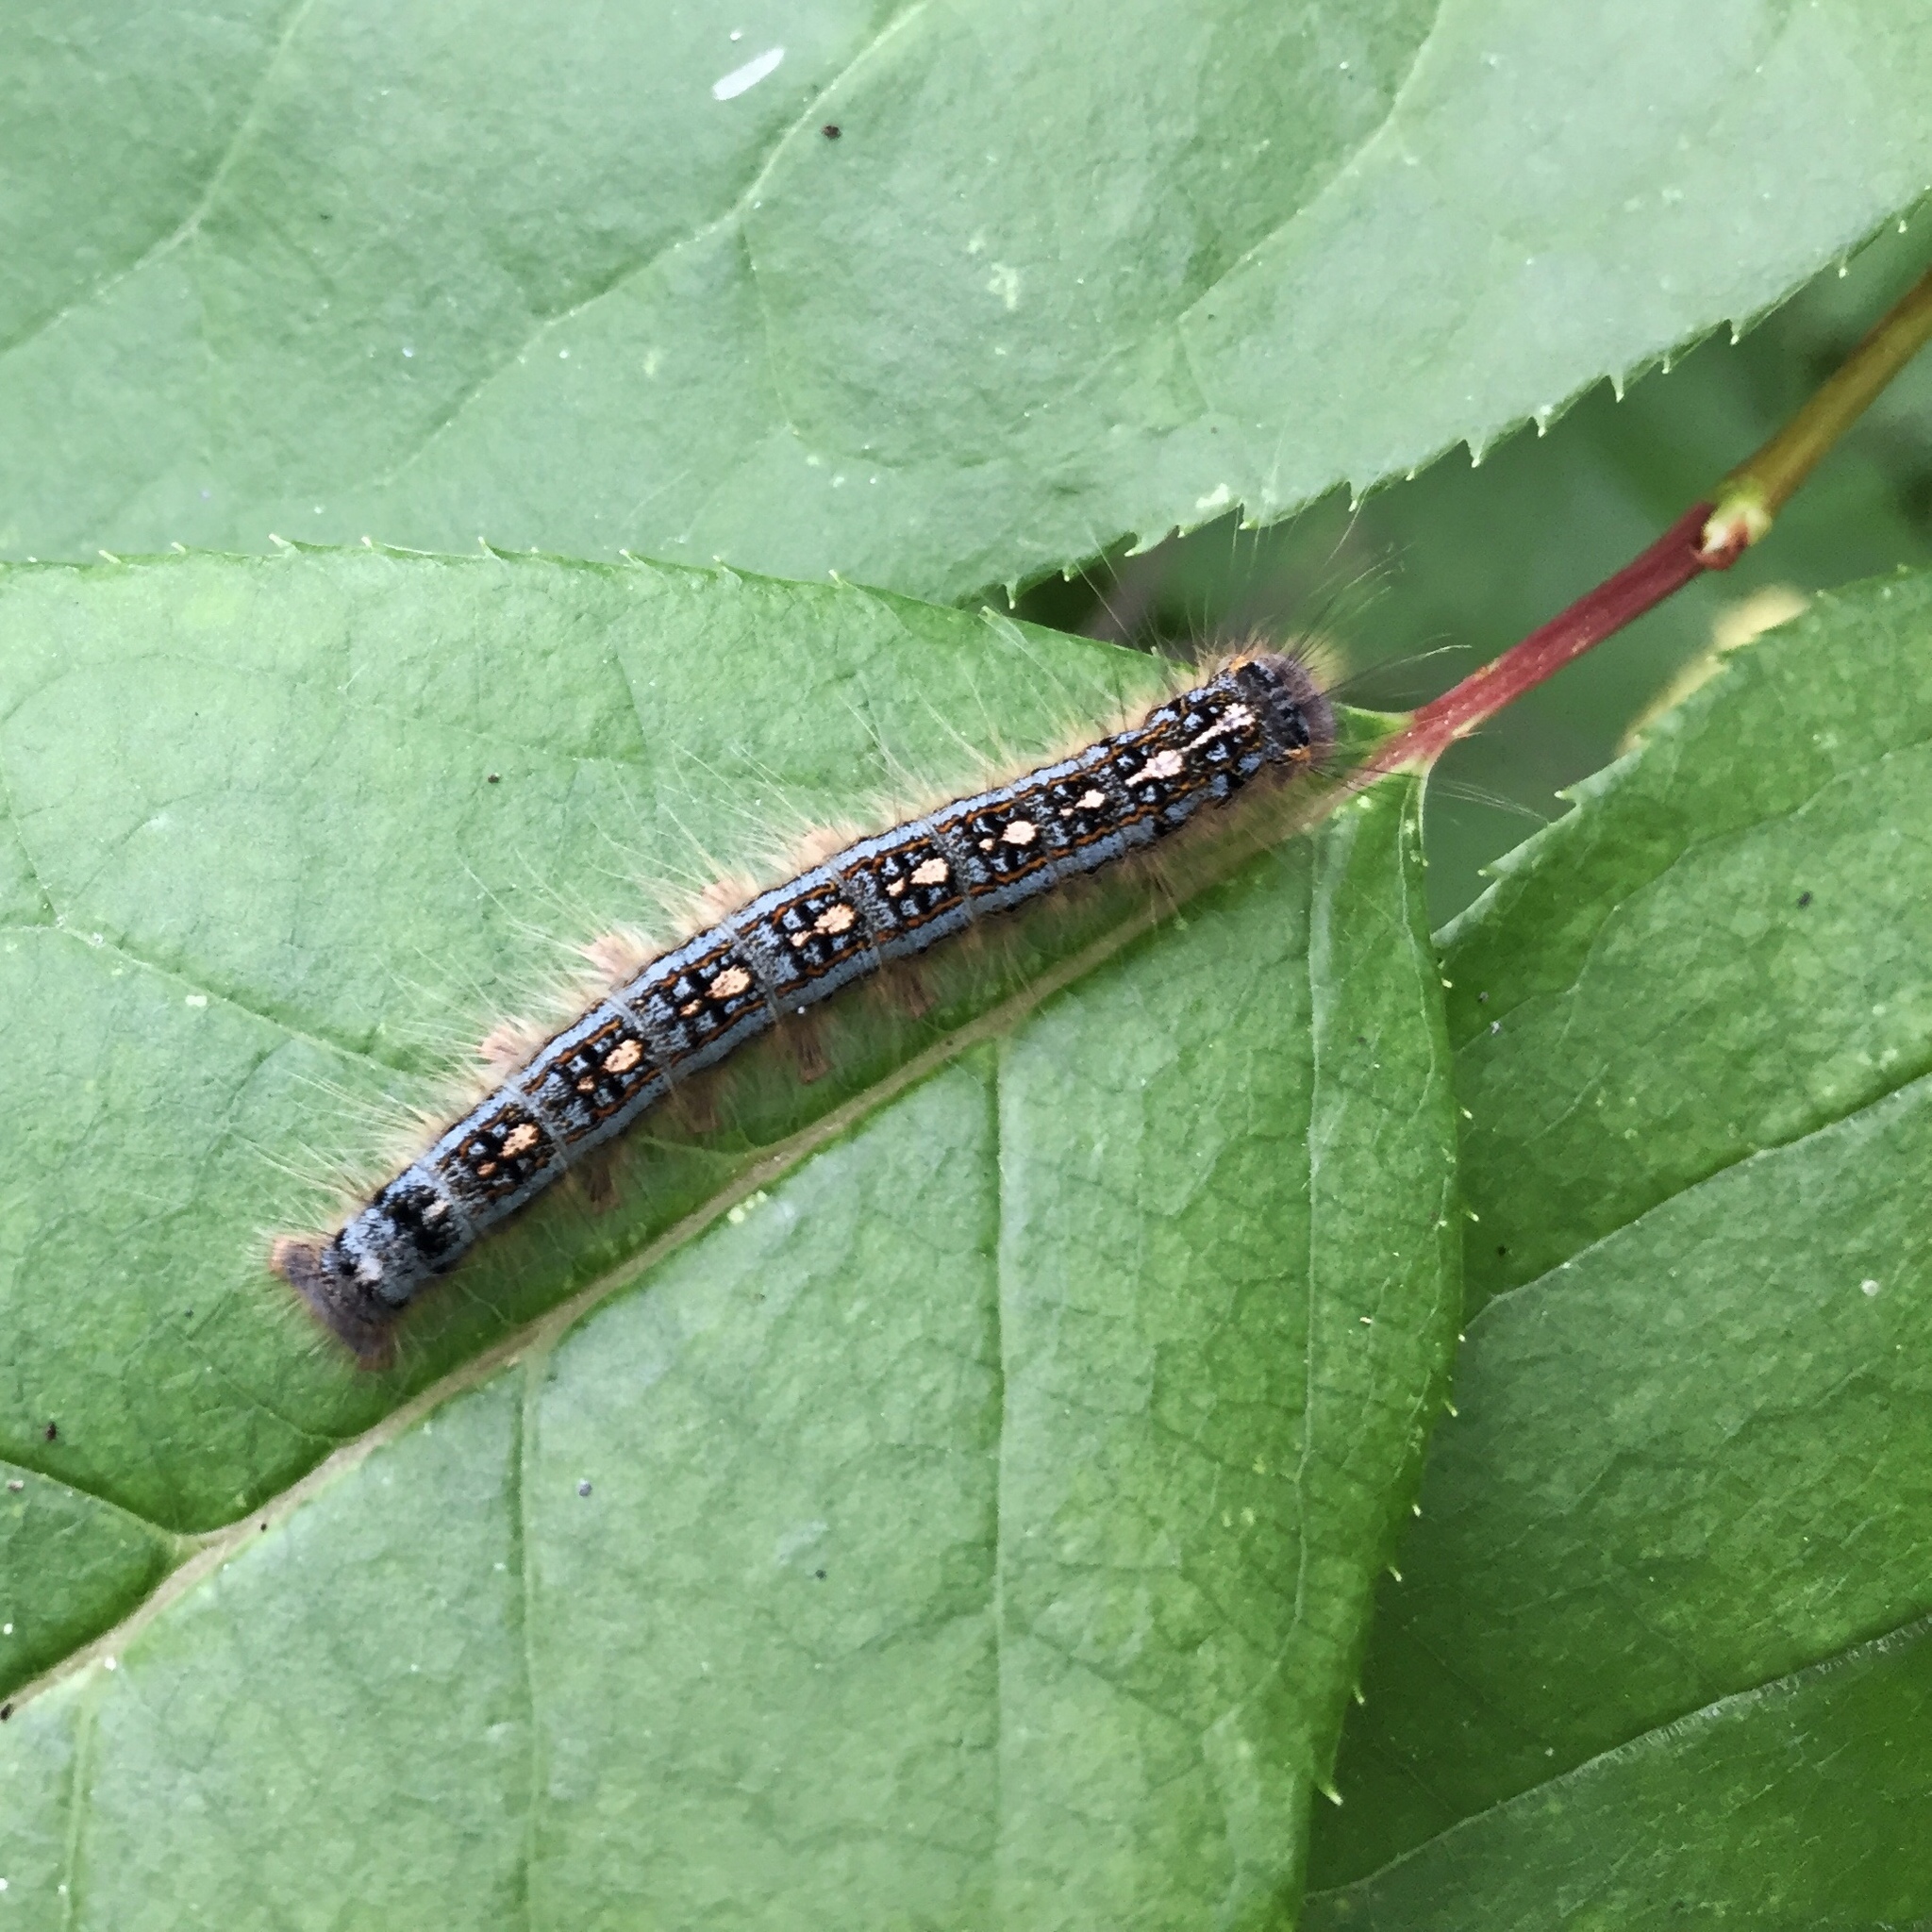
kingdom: Animalia
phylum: Arthropoda
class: Insecta
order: Lepidoptera
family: Lasiocampidae
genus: Malacosoma
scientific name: Malacosoma disstria
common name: Forest tent caterpillar
